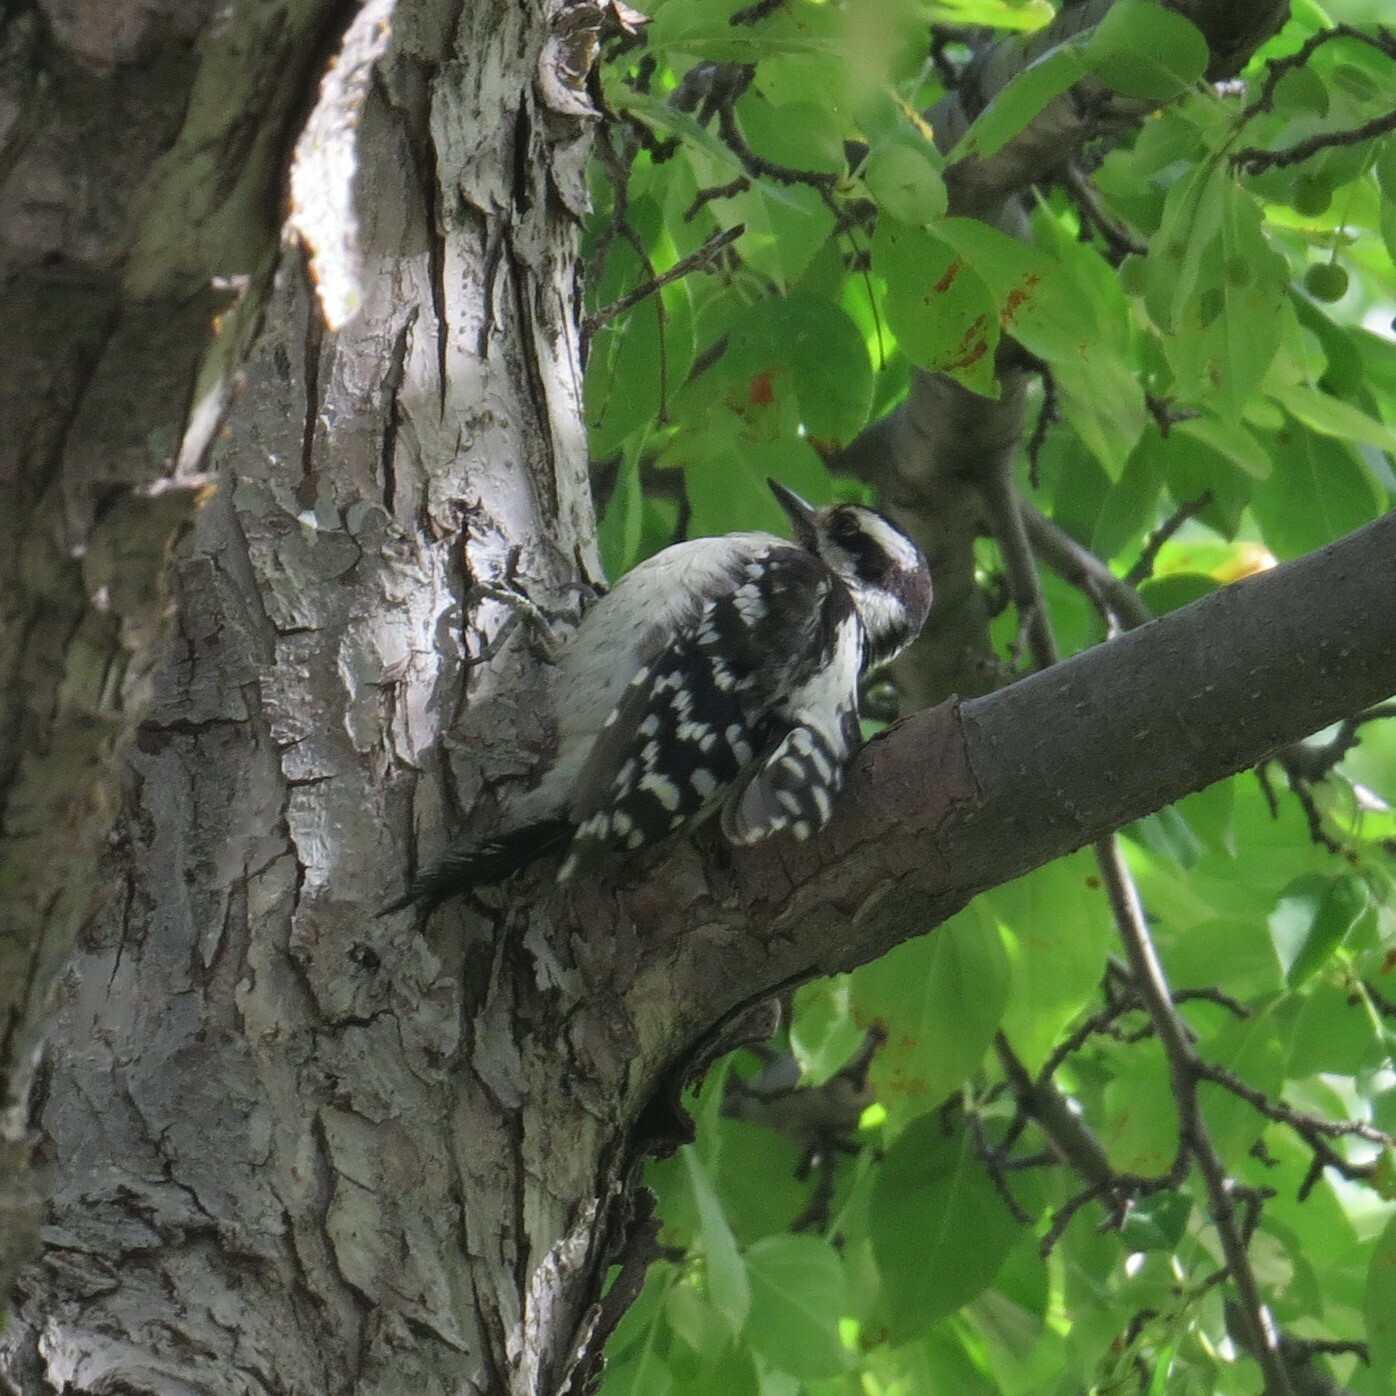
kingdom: Animalia
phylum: Chordata
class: Aves
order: Piciformes
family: Picidae
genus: Dryobates
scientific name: Dryobates pubescens
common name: Downy woodpecker
